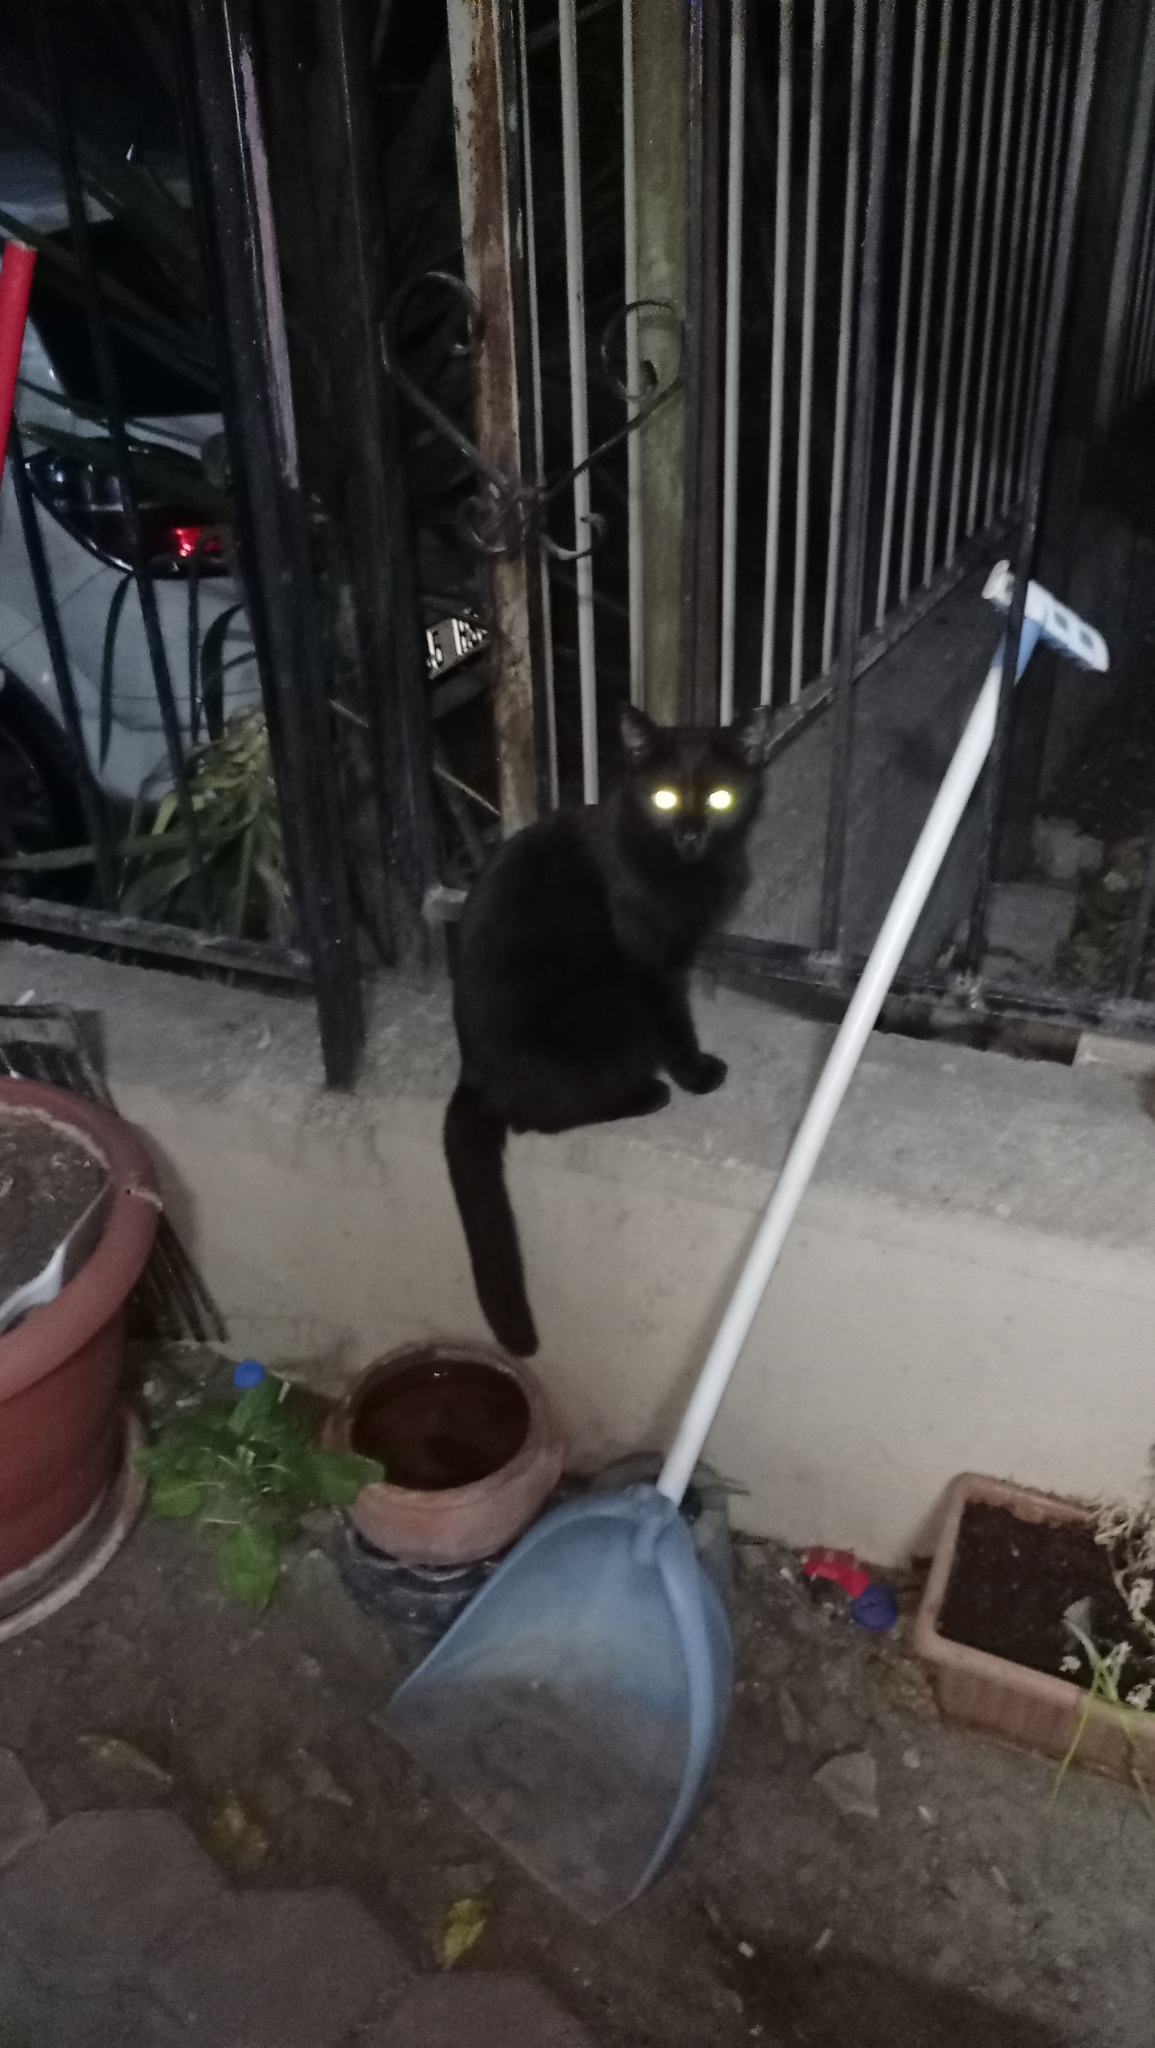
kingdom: Animalia
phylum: Chordata
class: Mammalia
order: Carnivora
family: Felidae
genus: Felis
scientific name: Felis catus
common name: Domestic cat
